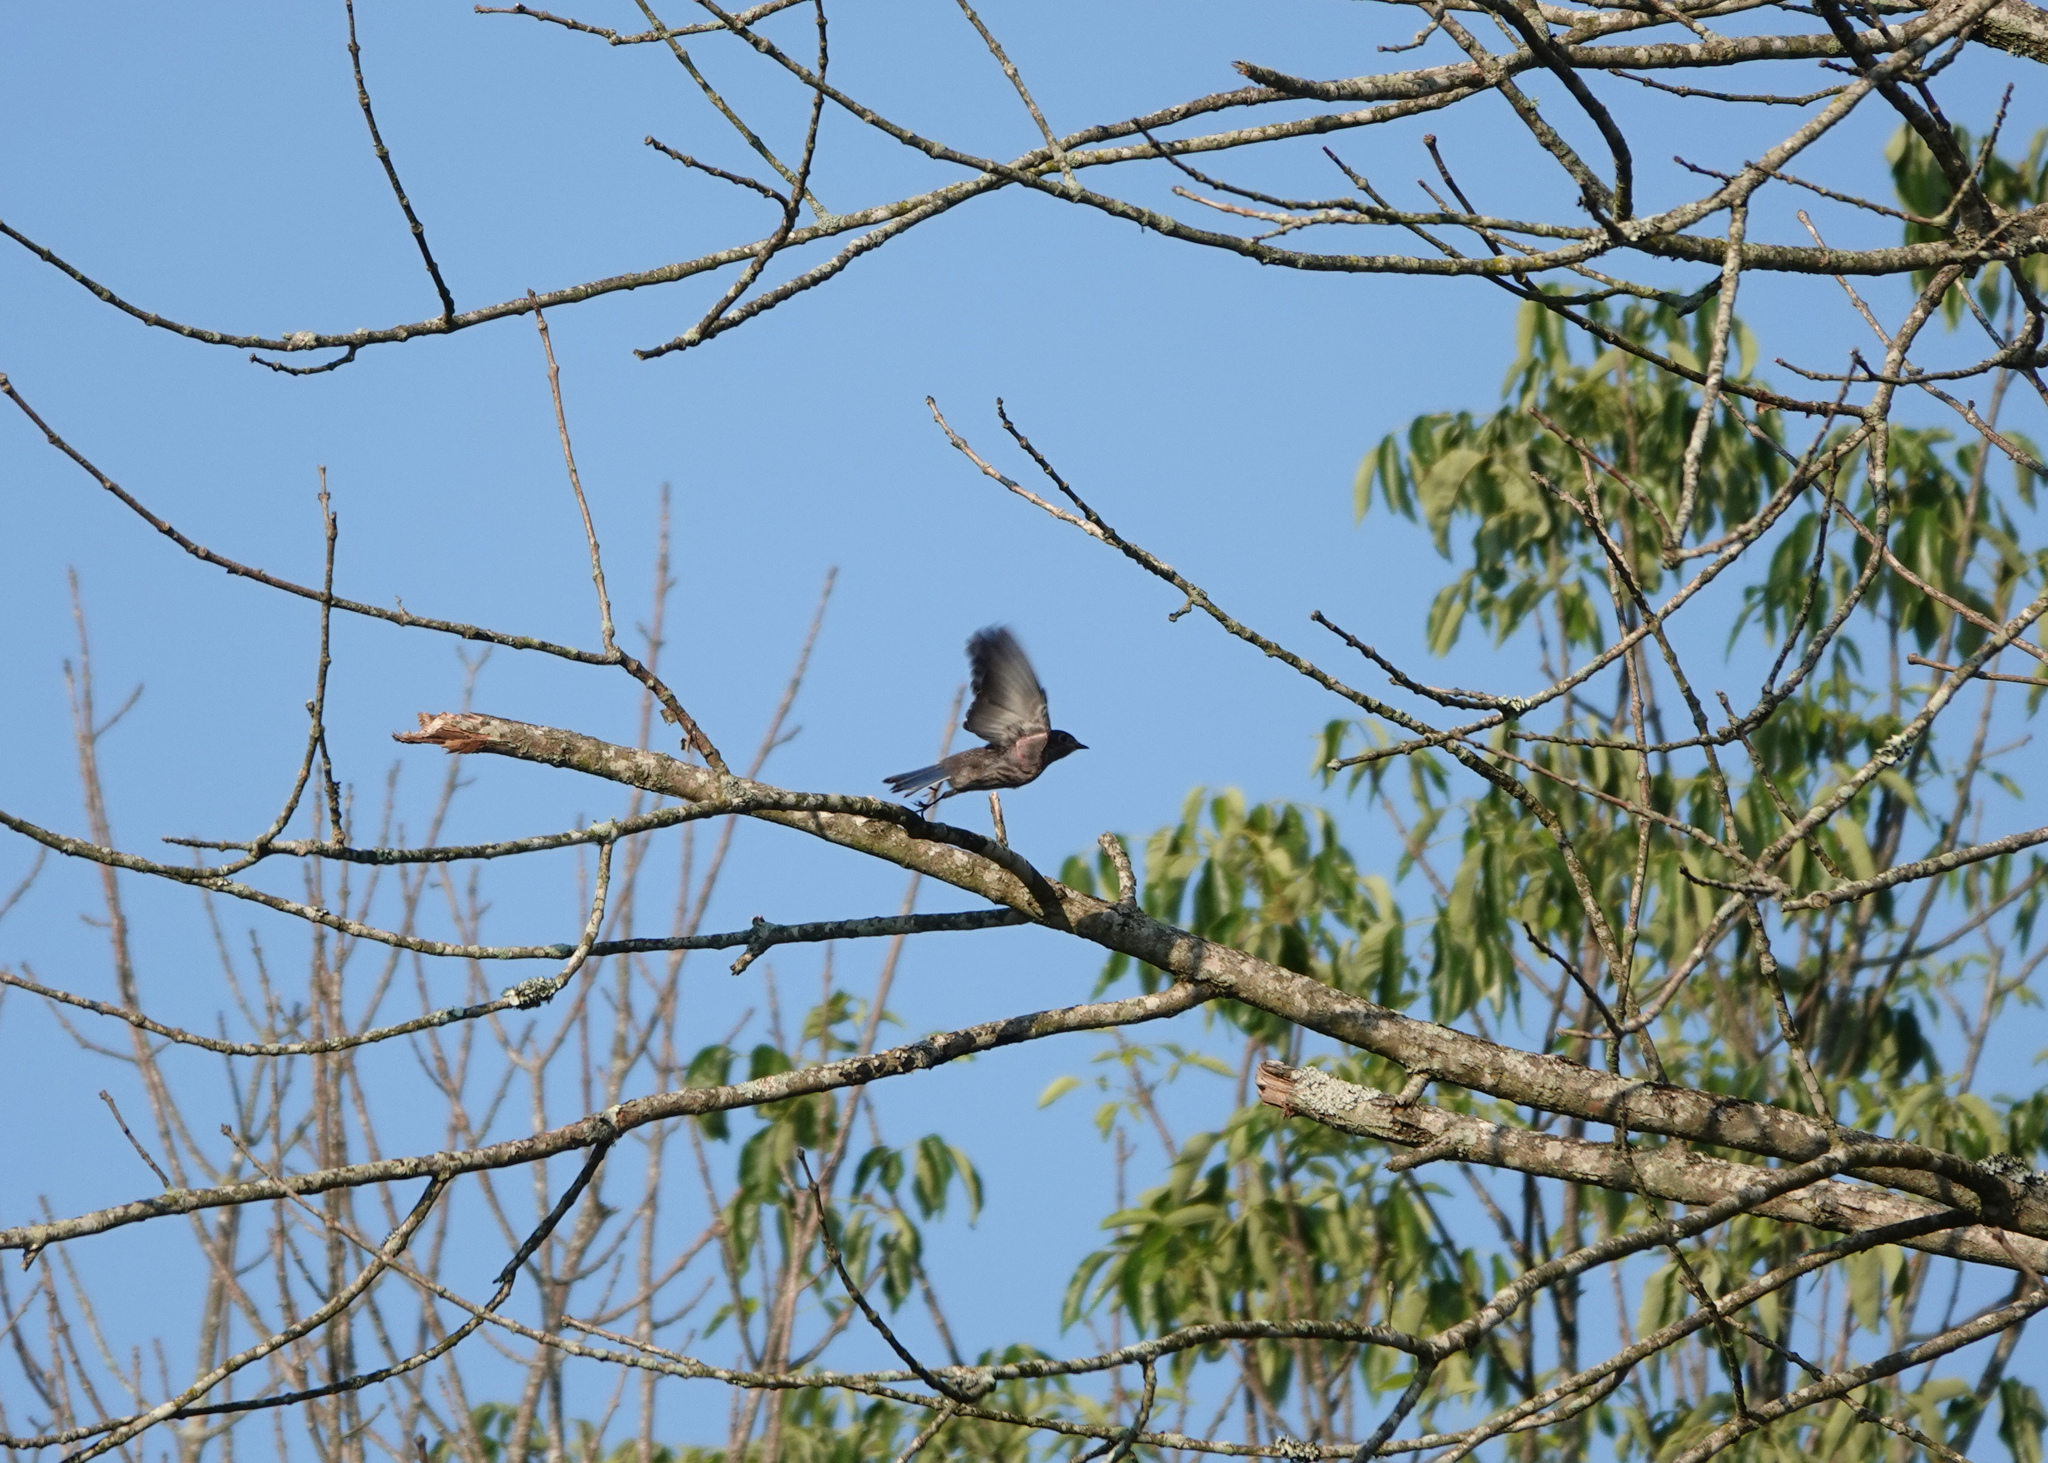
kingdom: Animalia
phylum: Chordata
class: Aves
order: Passeriformes
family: Turdidae
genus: Sialia
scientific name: Sialia sialis
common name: Eastern bluebird
